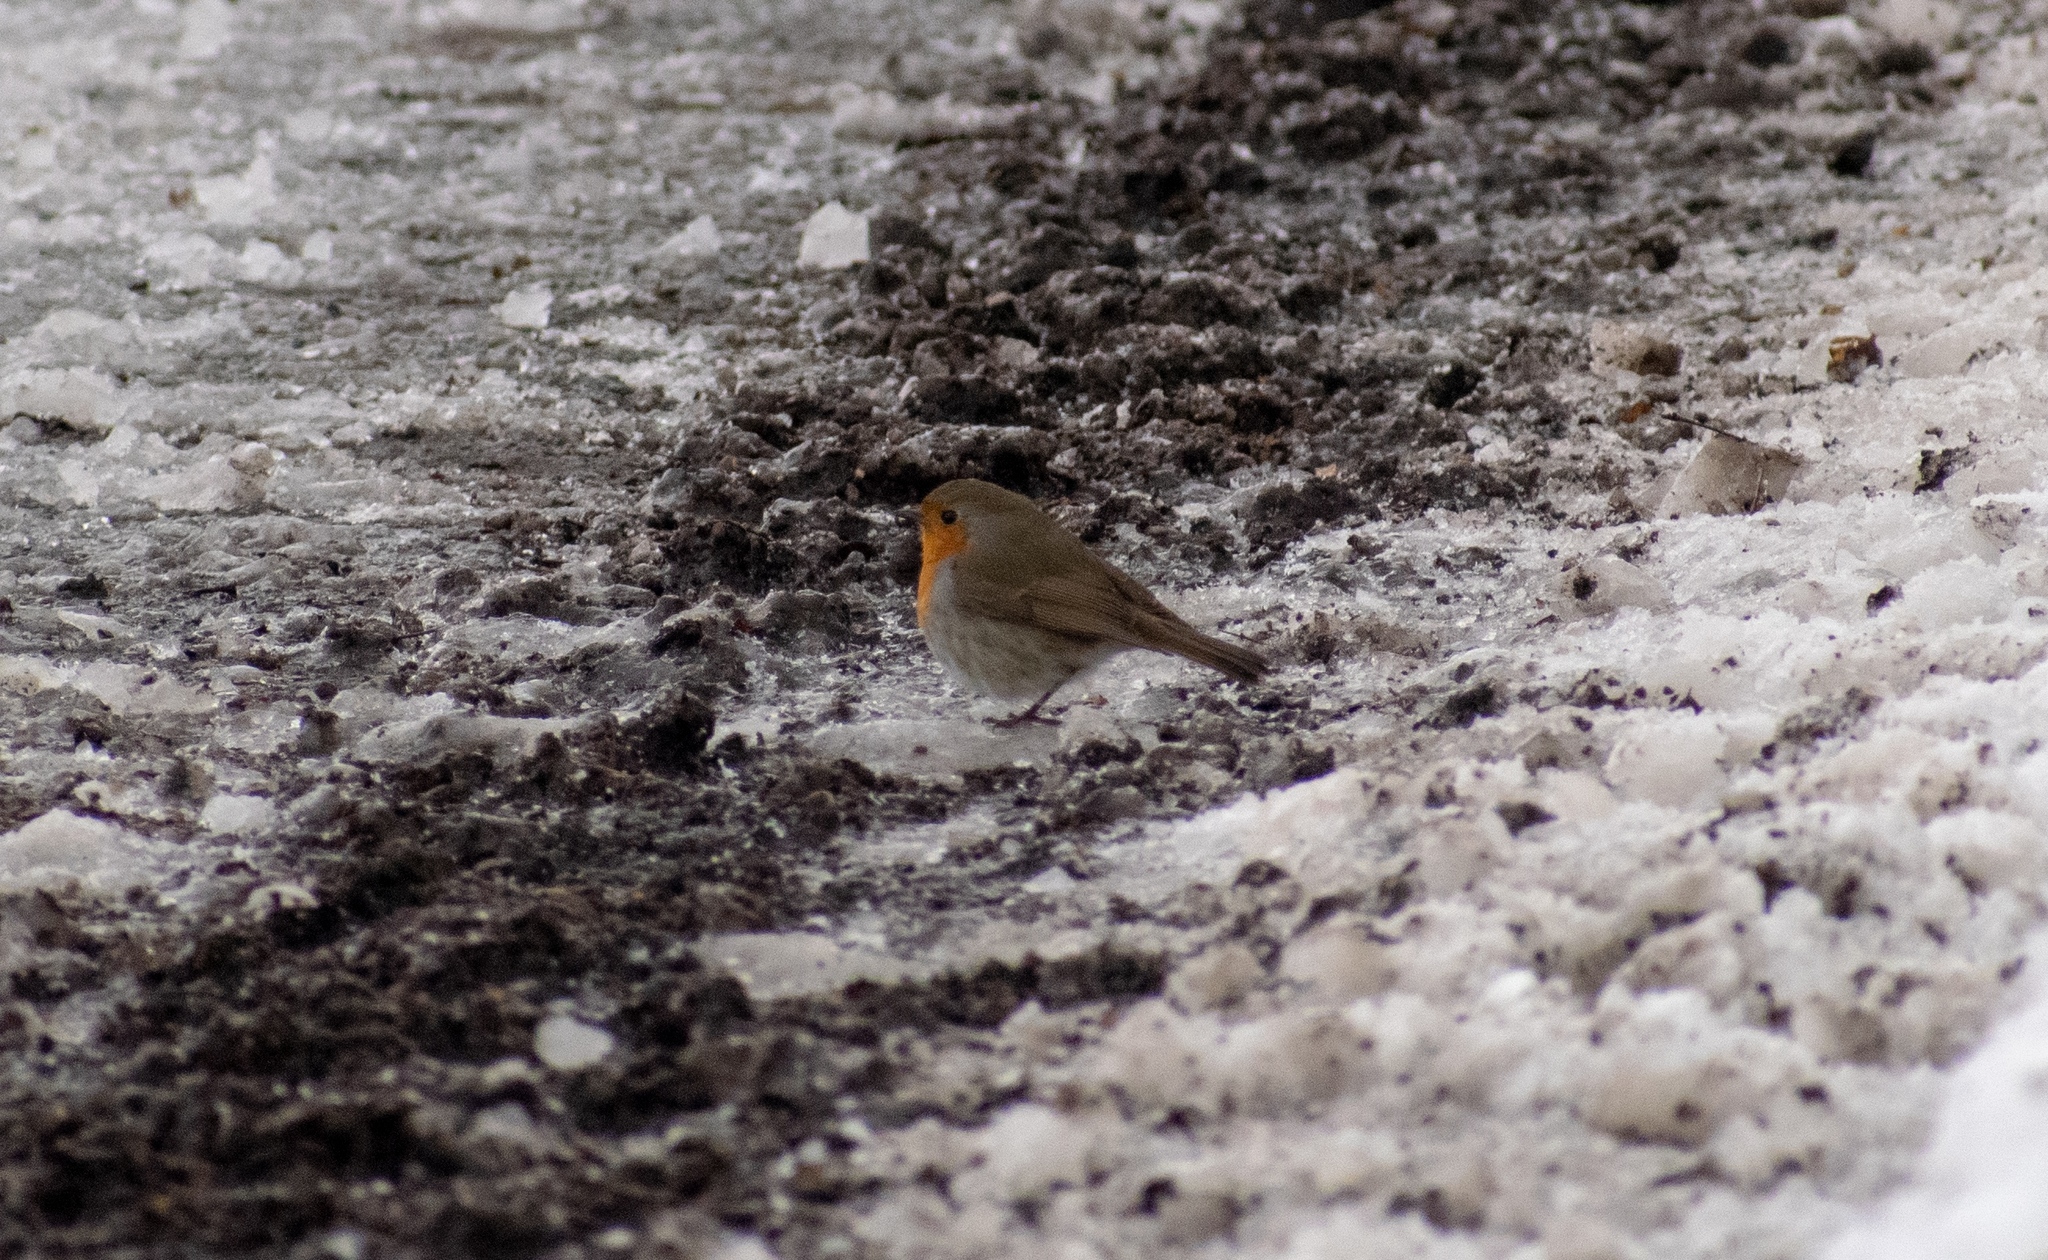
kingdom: Animalia
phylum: Chordata
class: Aves
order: Passeriformes
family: Muscicapidae
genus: Erithacus
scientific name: Erithacus rubecula
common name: European robin
